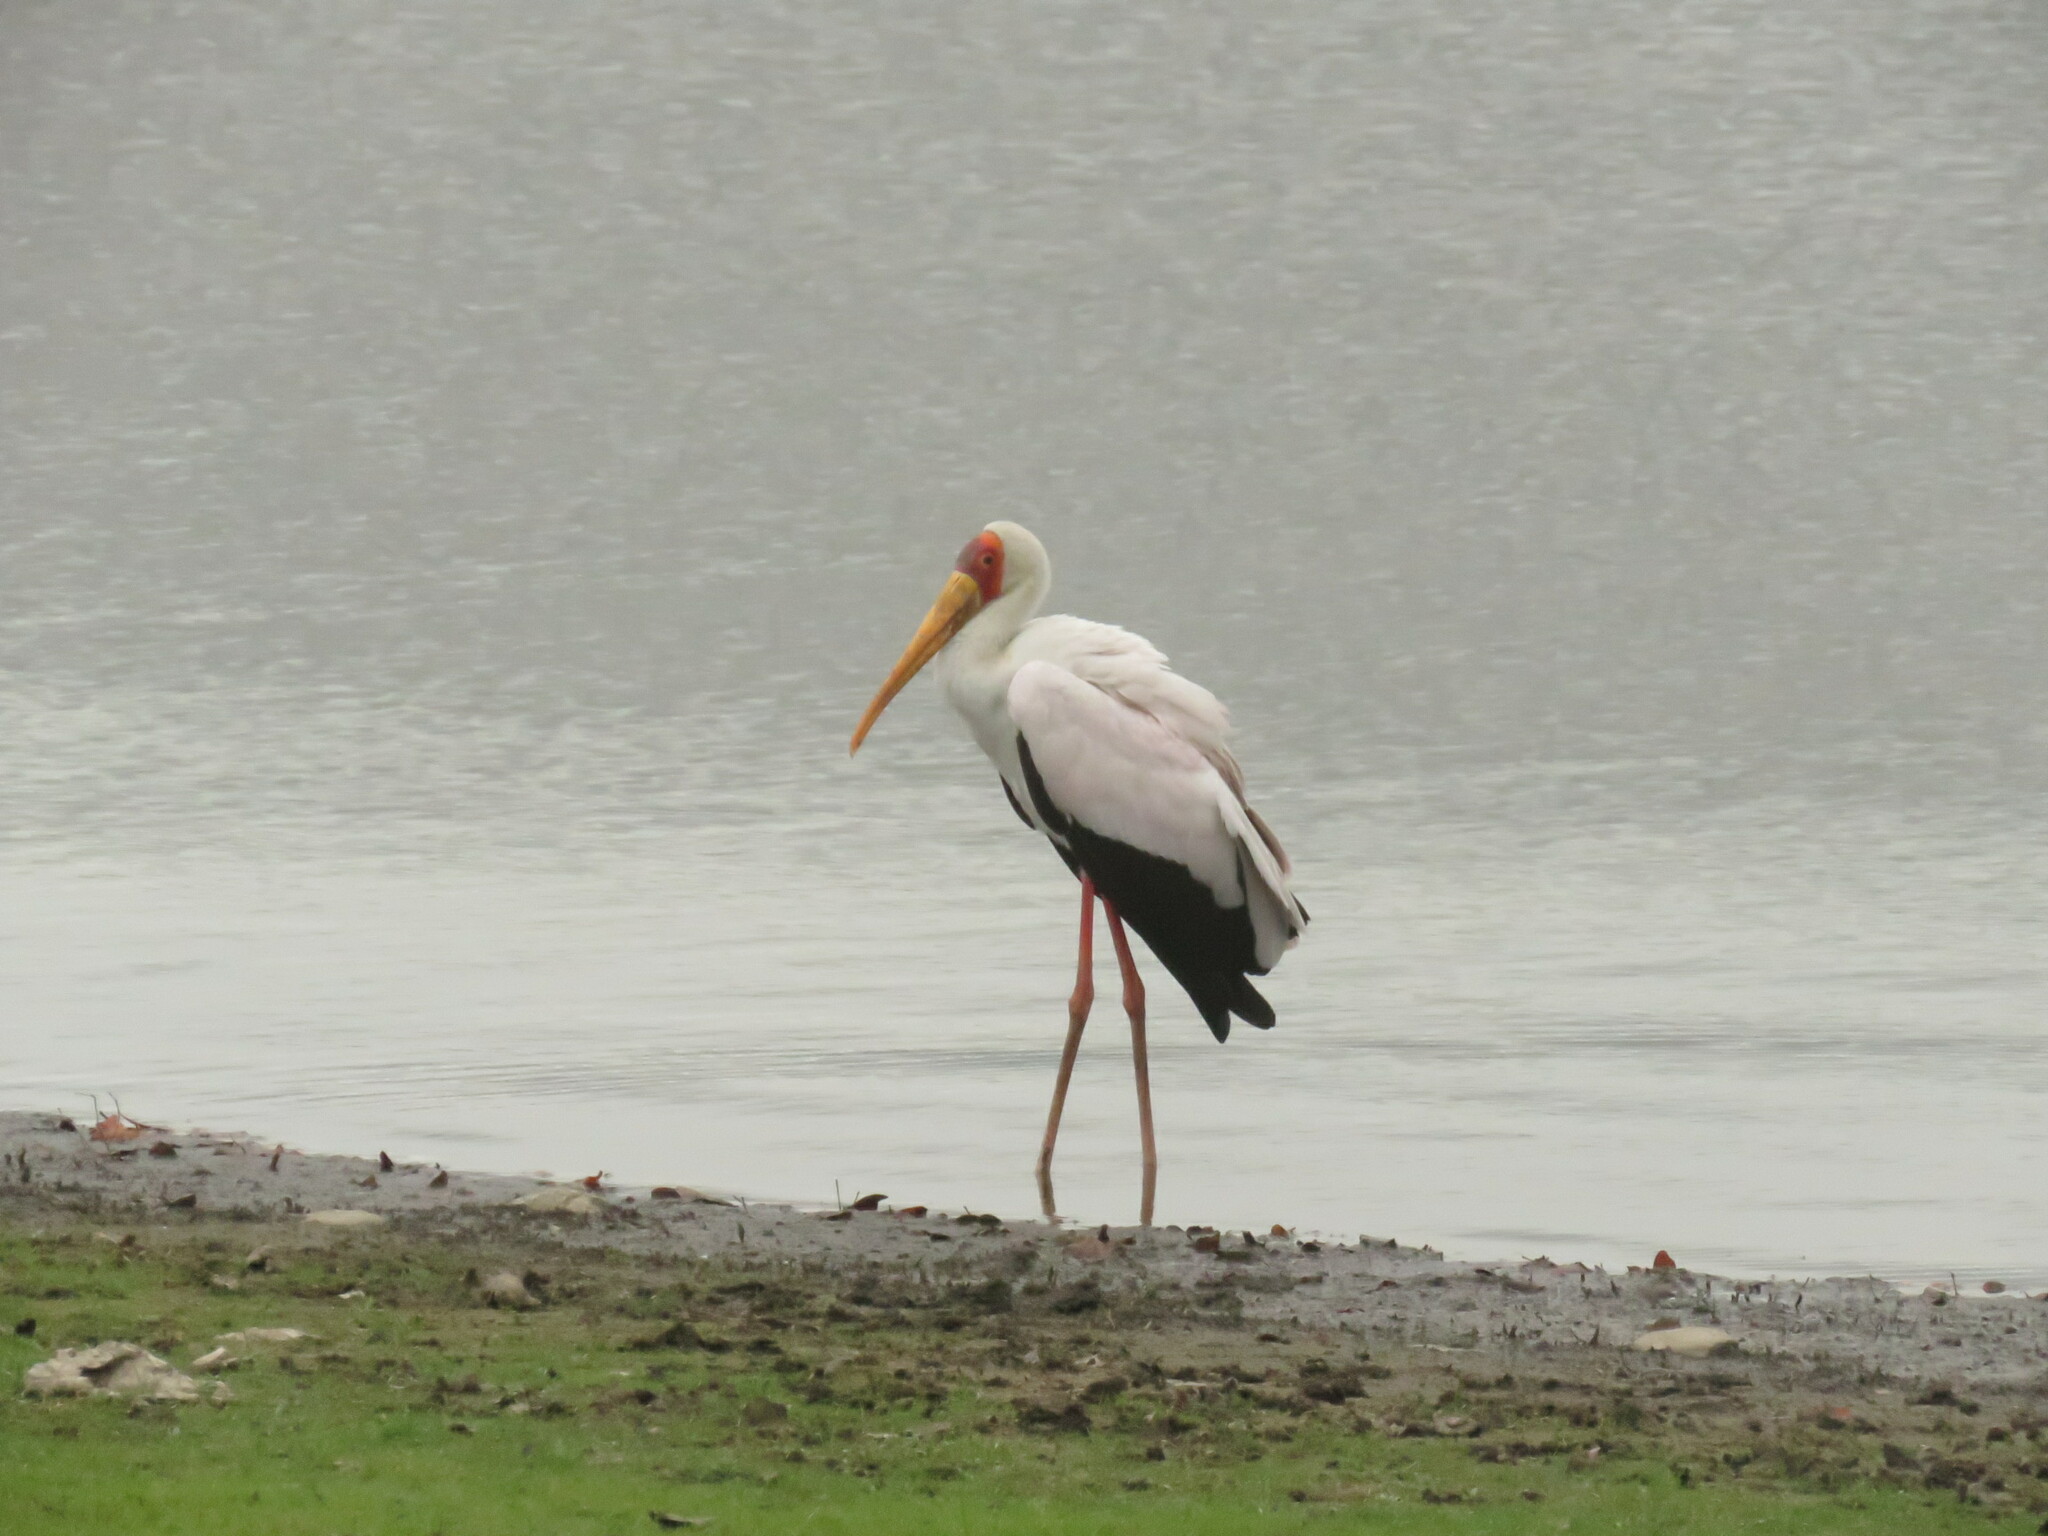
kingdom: Animalia
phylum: Chordata
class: Aves
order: Ciconiiformes
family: Ciconiidae
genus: Mycteria
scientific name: Mycteria ibis
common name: Yellow-billed stork
